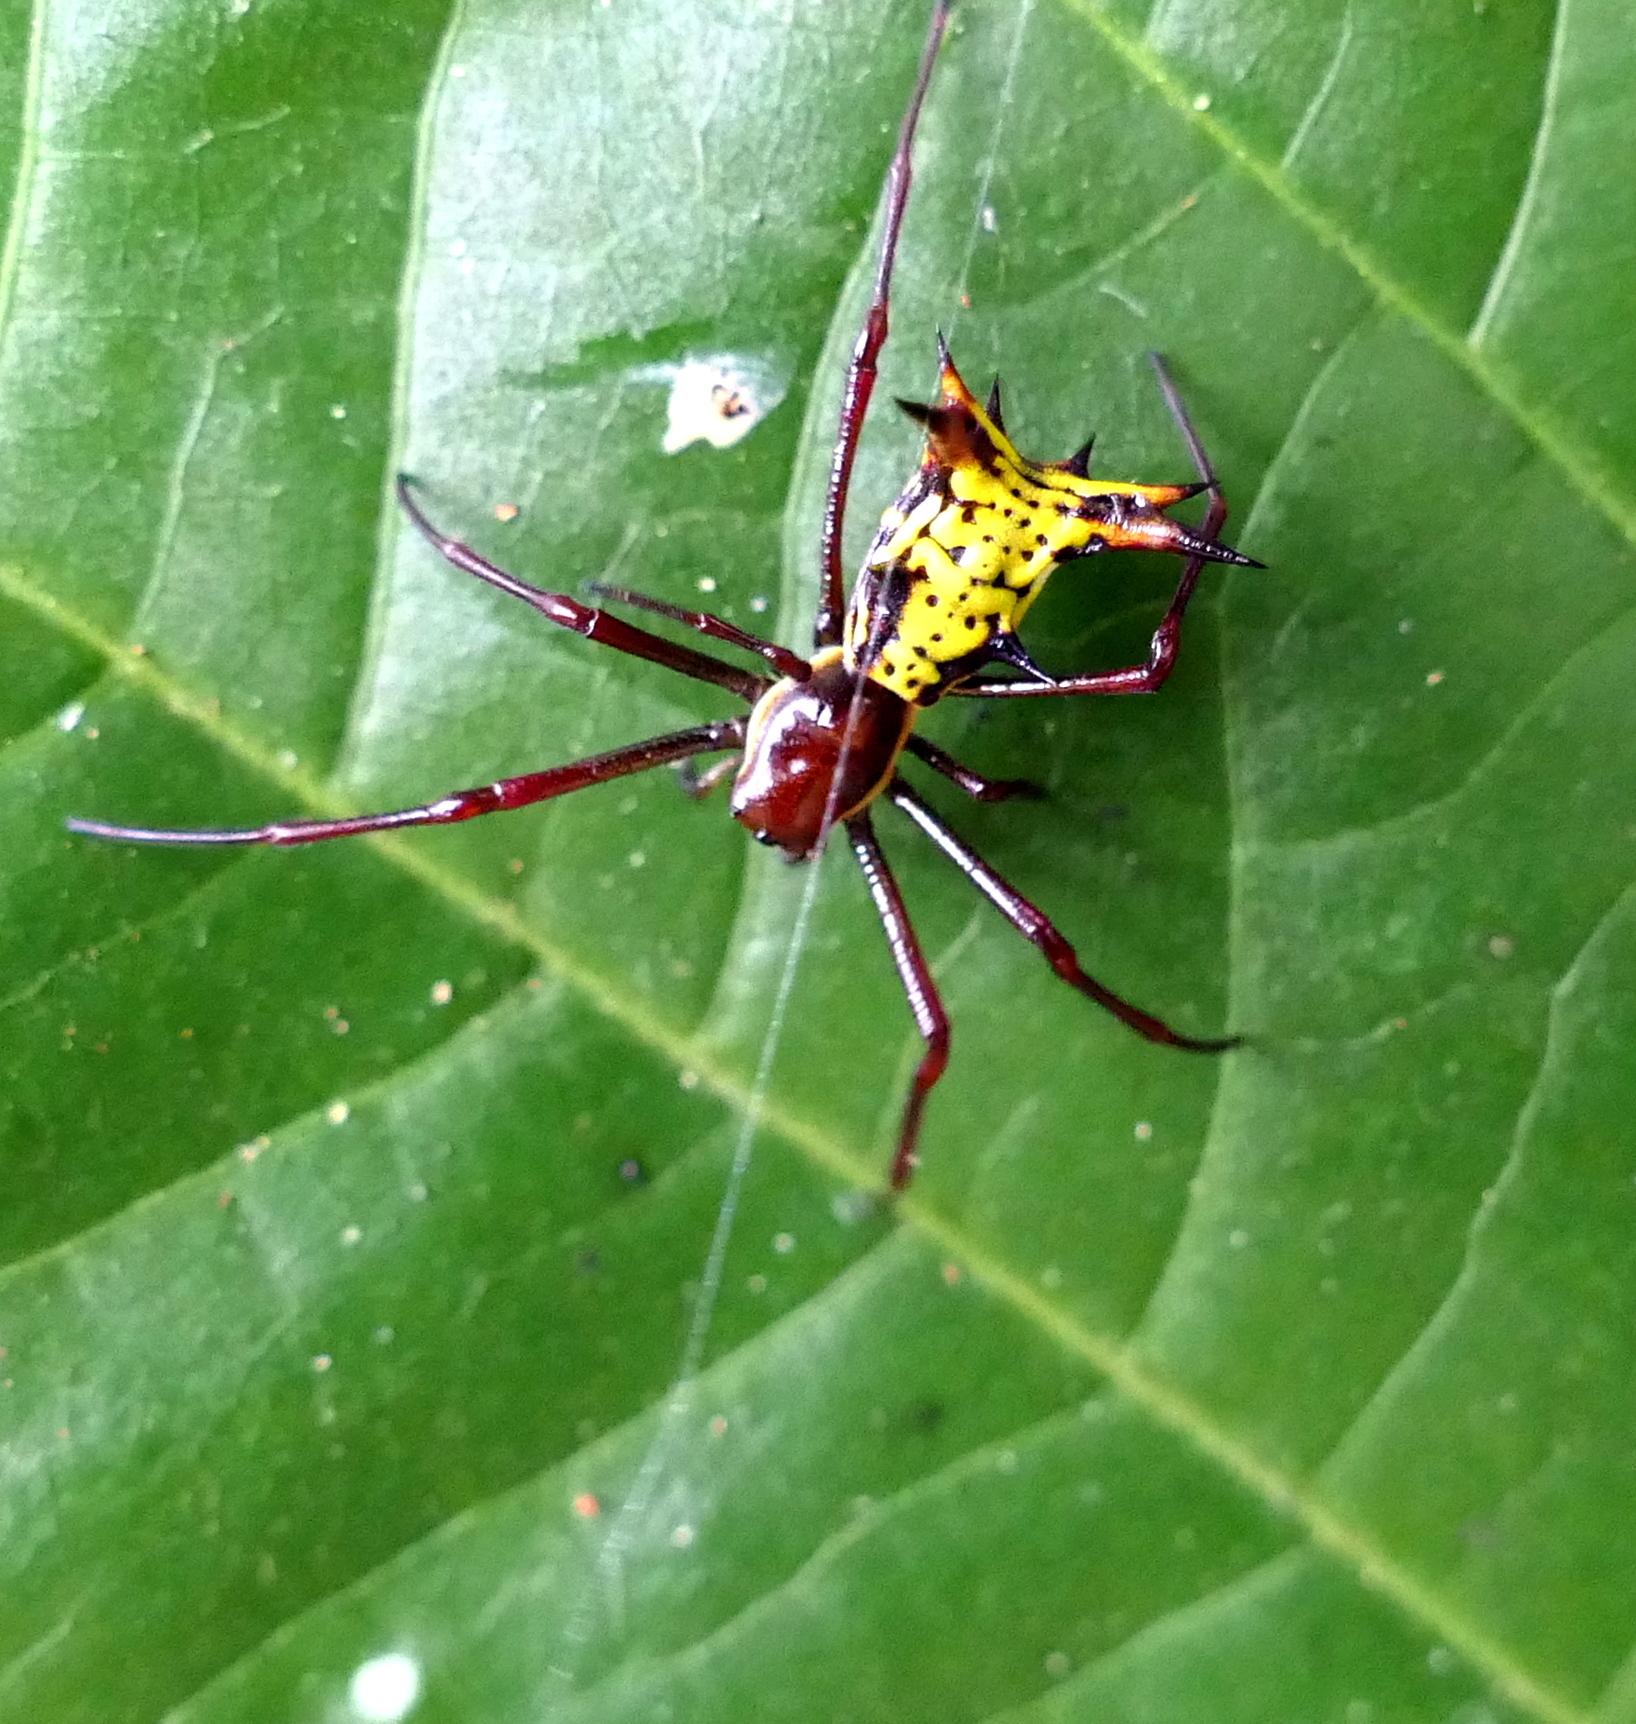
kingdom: Animalia
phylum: Arthropoda
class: Arachnida
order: Araneae
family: Araneidae
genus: Micrathena
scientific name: Micrathena fissispina
